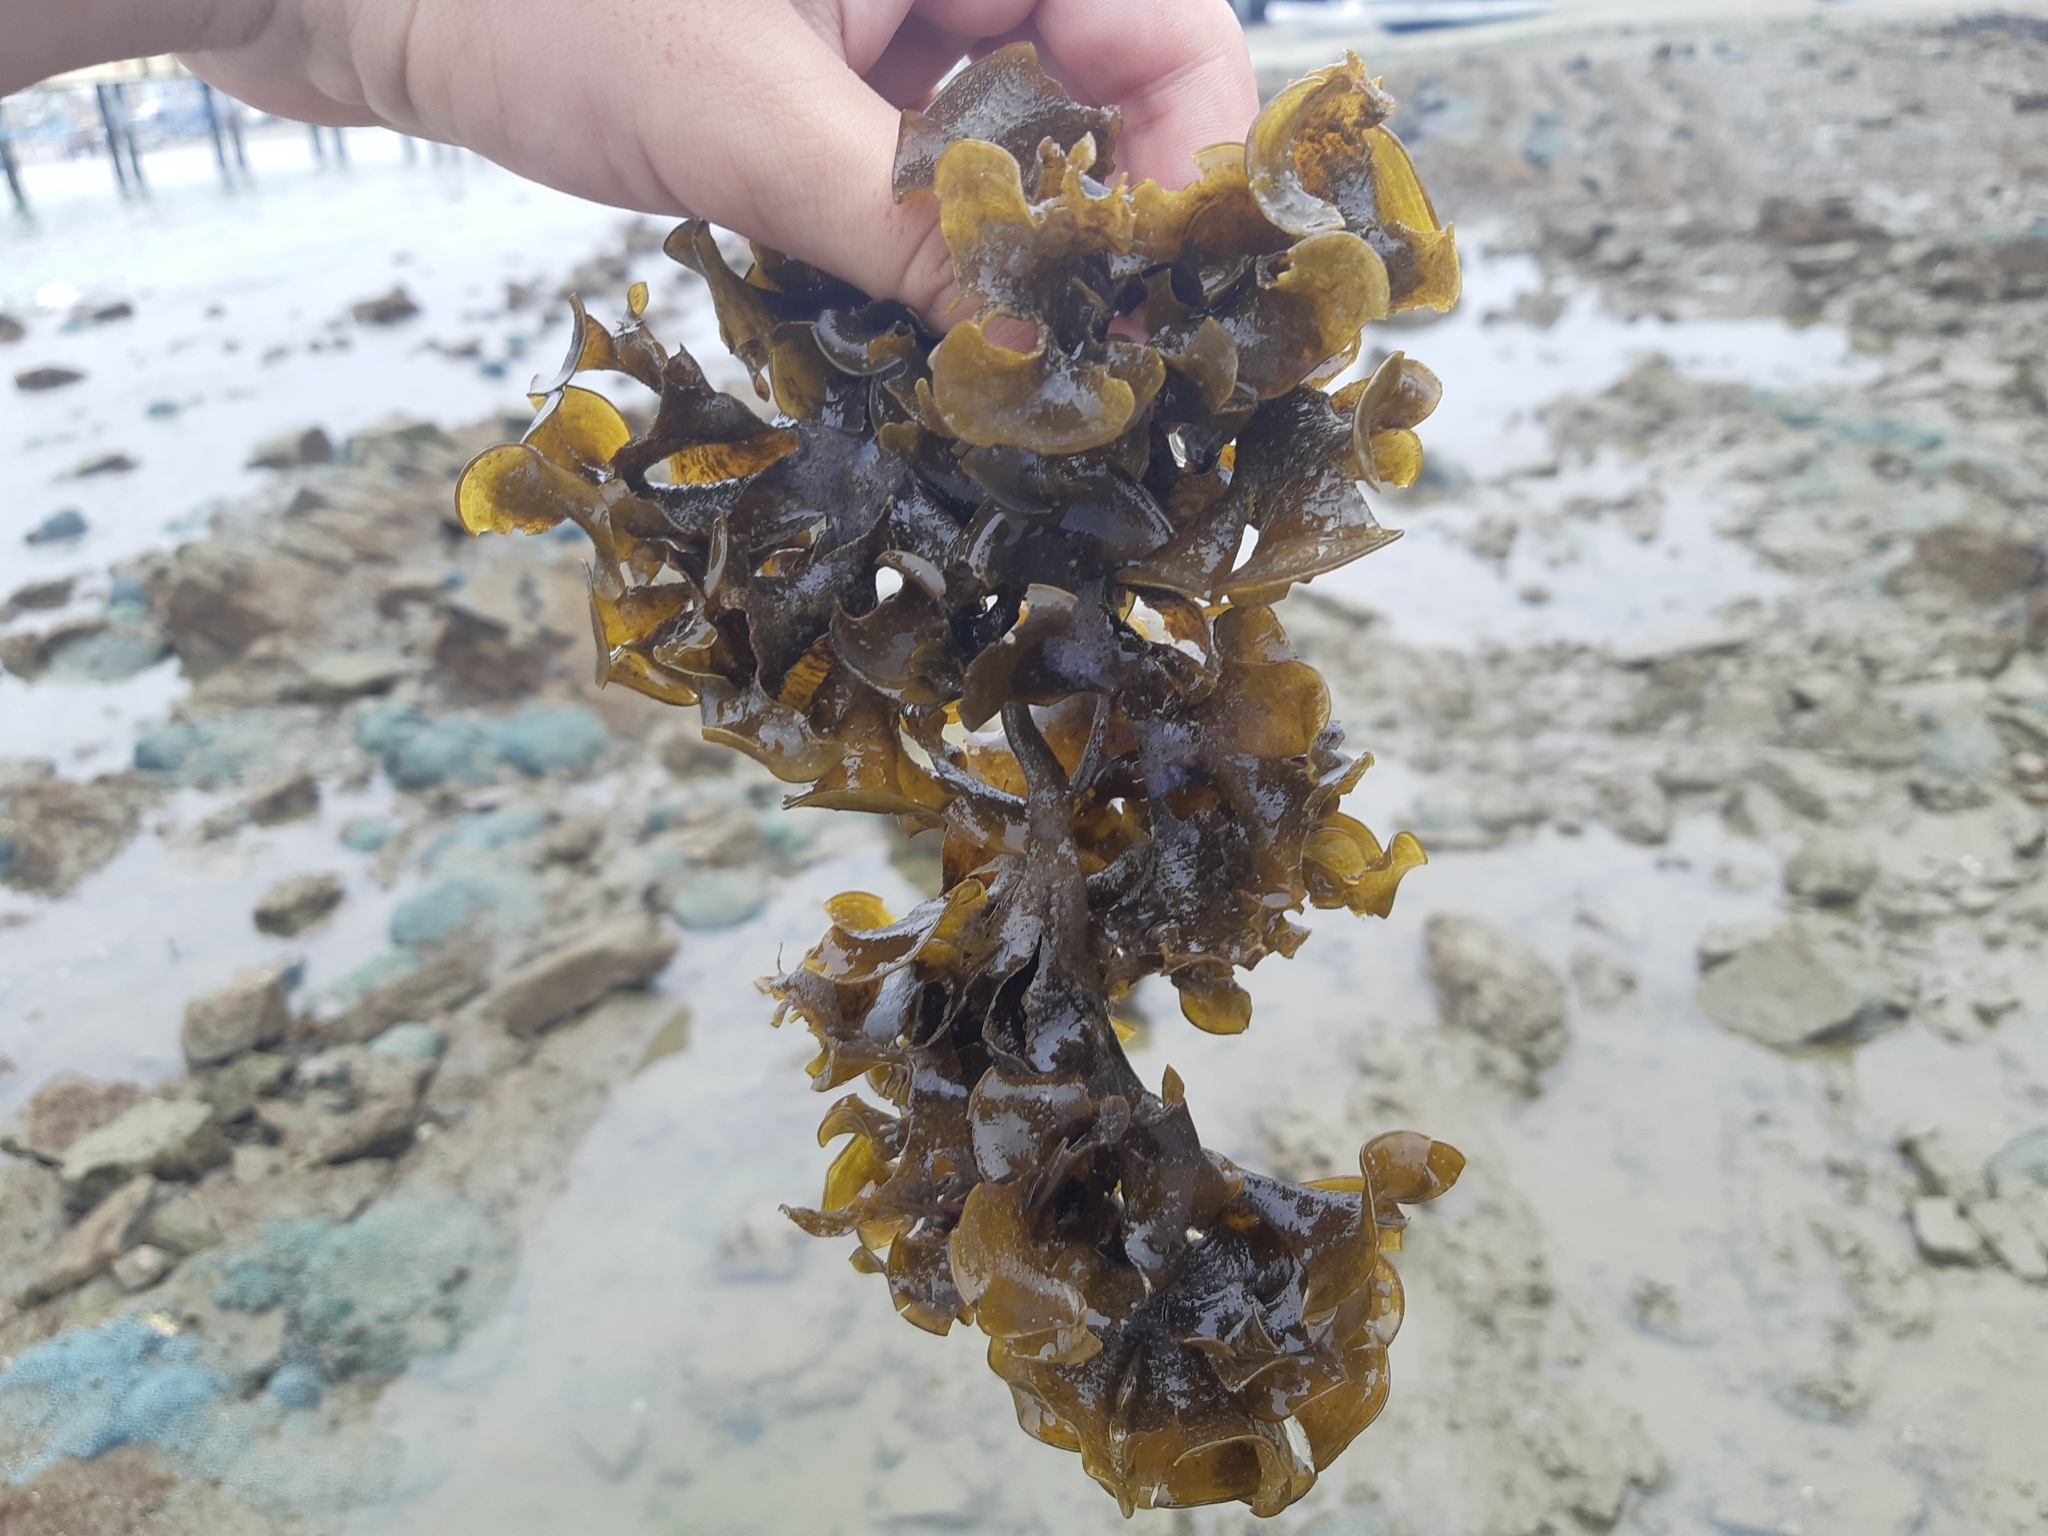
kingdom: Chromista
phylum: Ochrophyta
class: Phaeophyceae
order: Dictyotales
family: Dictyotaceae
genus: Lobophora
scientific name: Lobophora variegata
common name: Encrusting fan-leaf algae
